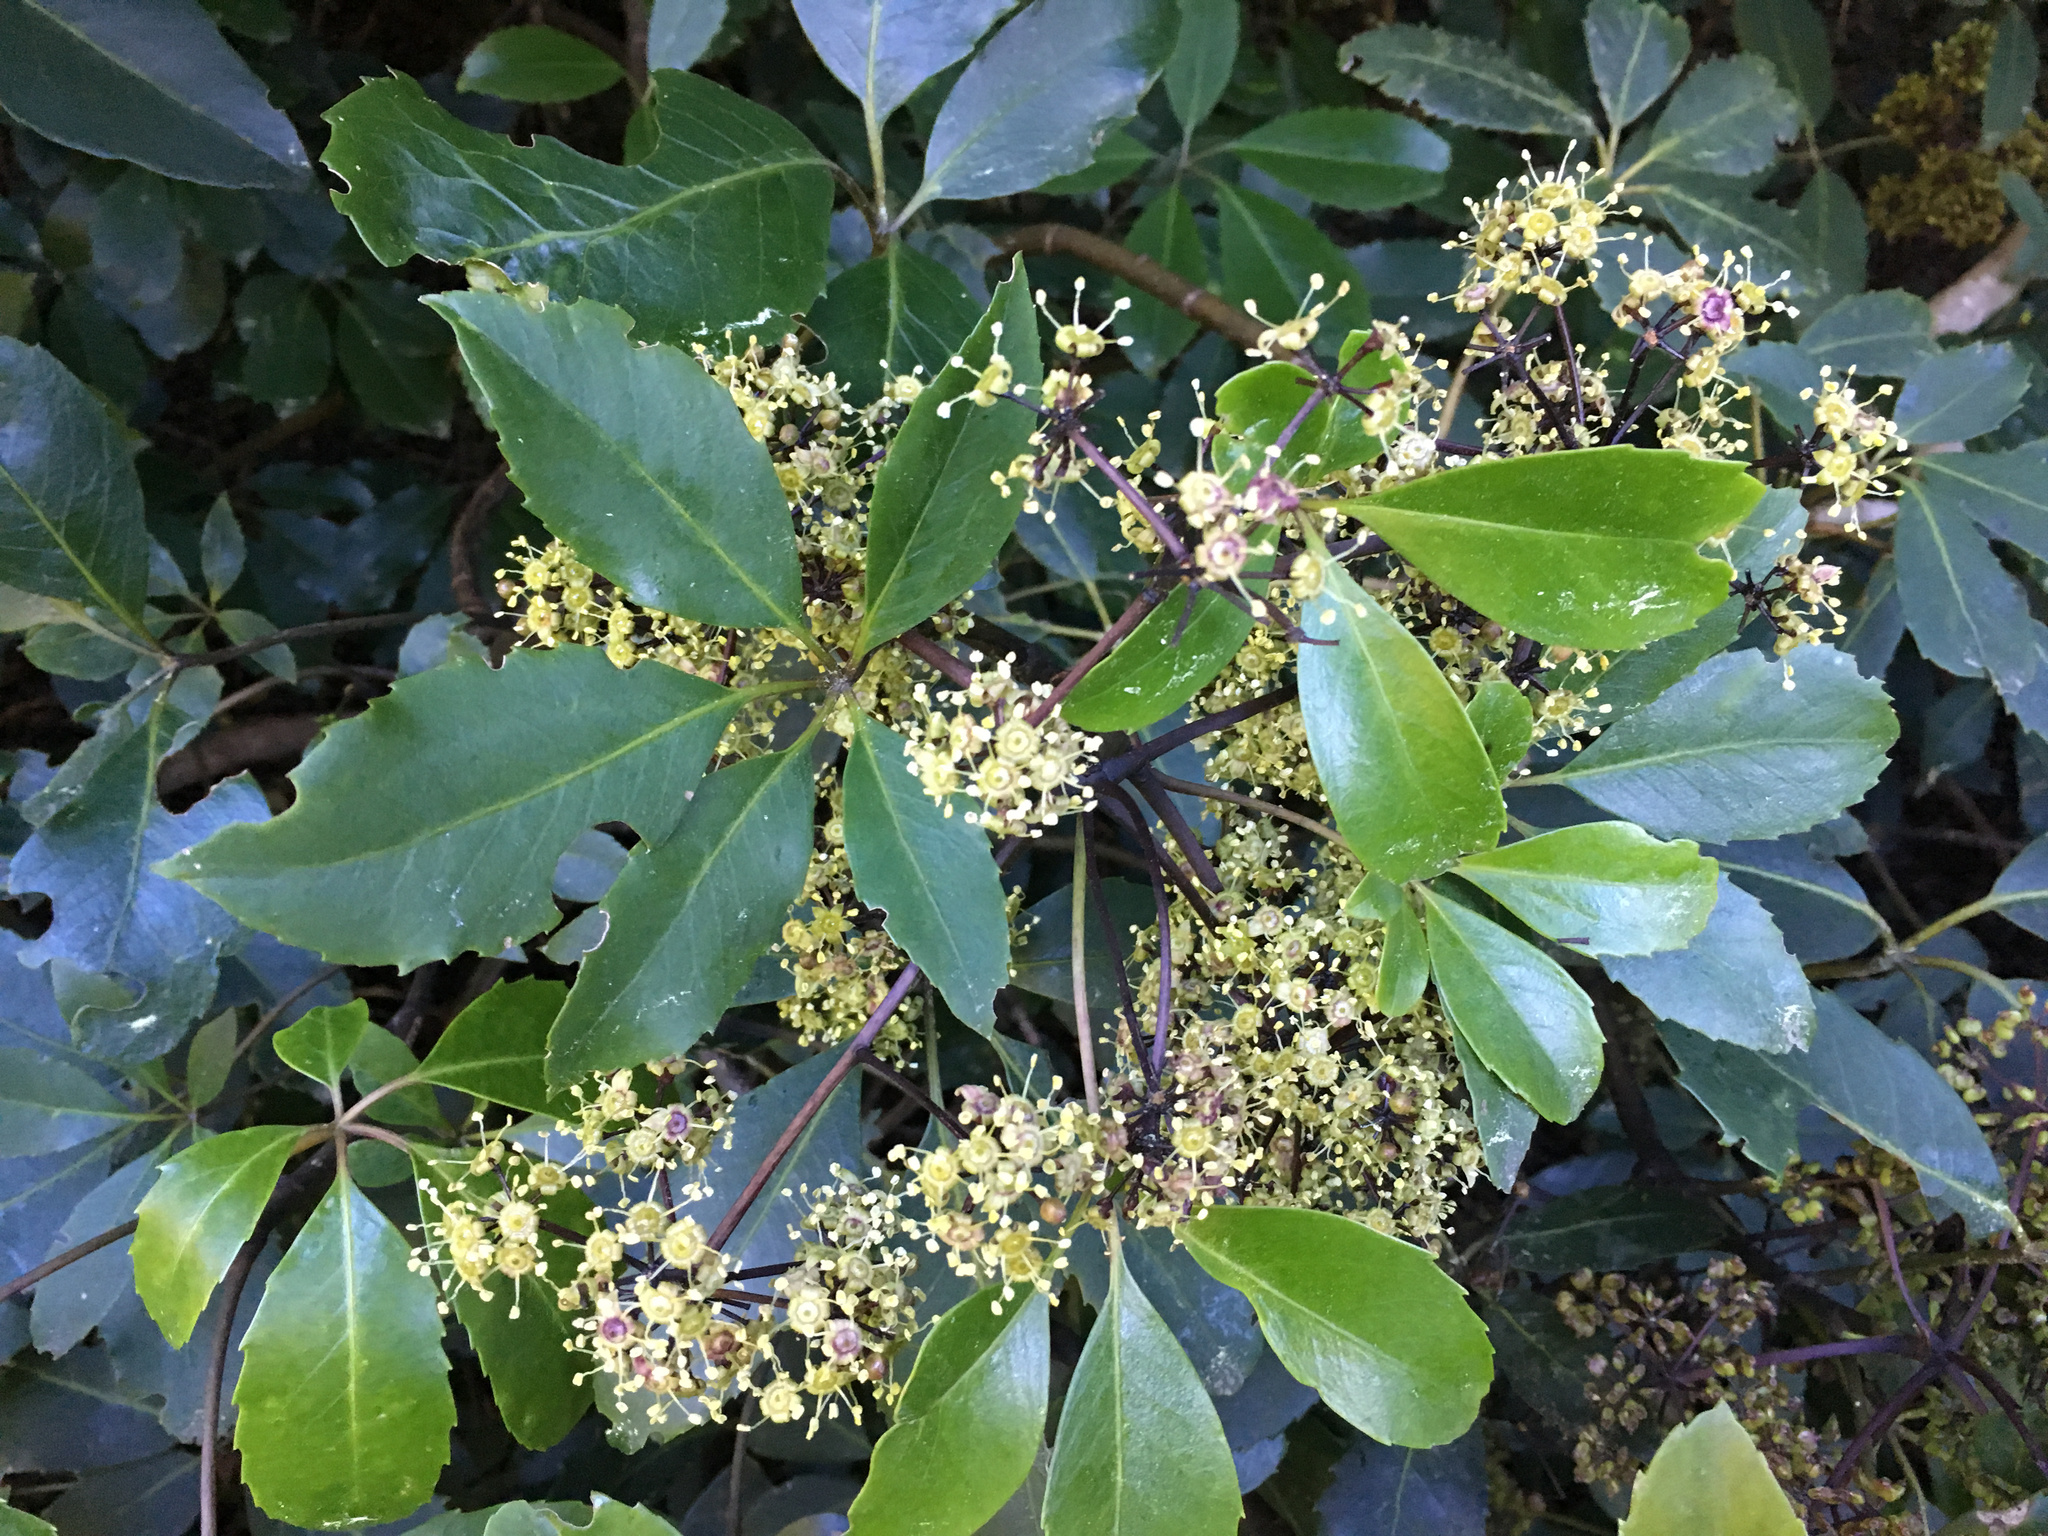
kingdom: Plantae
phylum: Tracheophyta
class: Magnoliopsida
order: Apiales
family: Araliaceae
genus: Neopanax
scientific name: Neopanax arboreus
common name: Five-fingers
